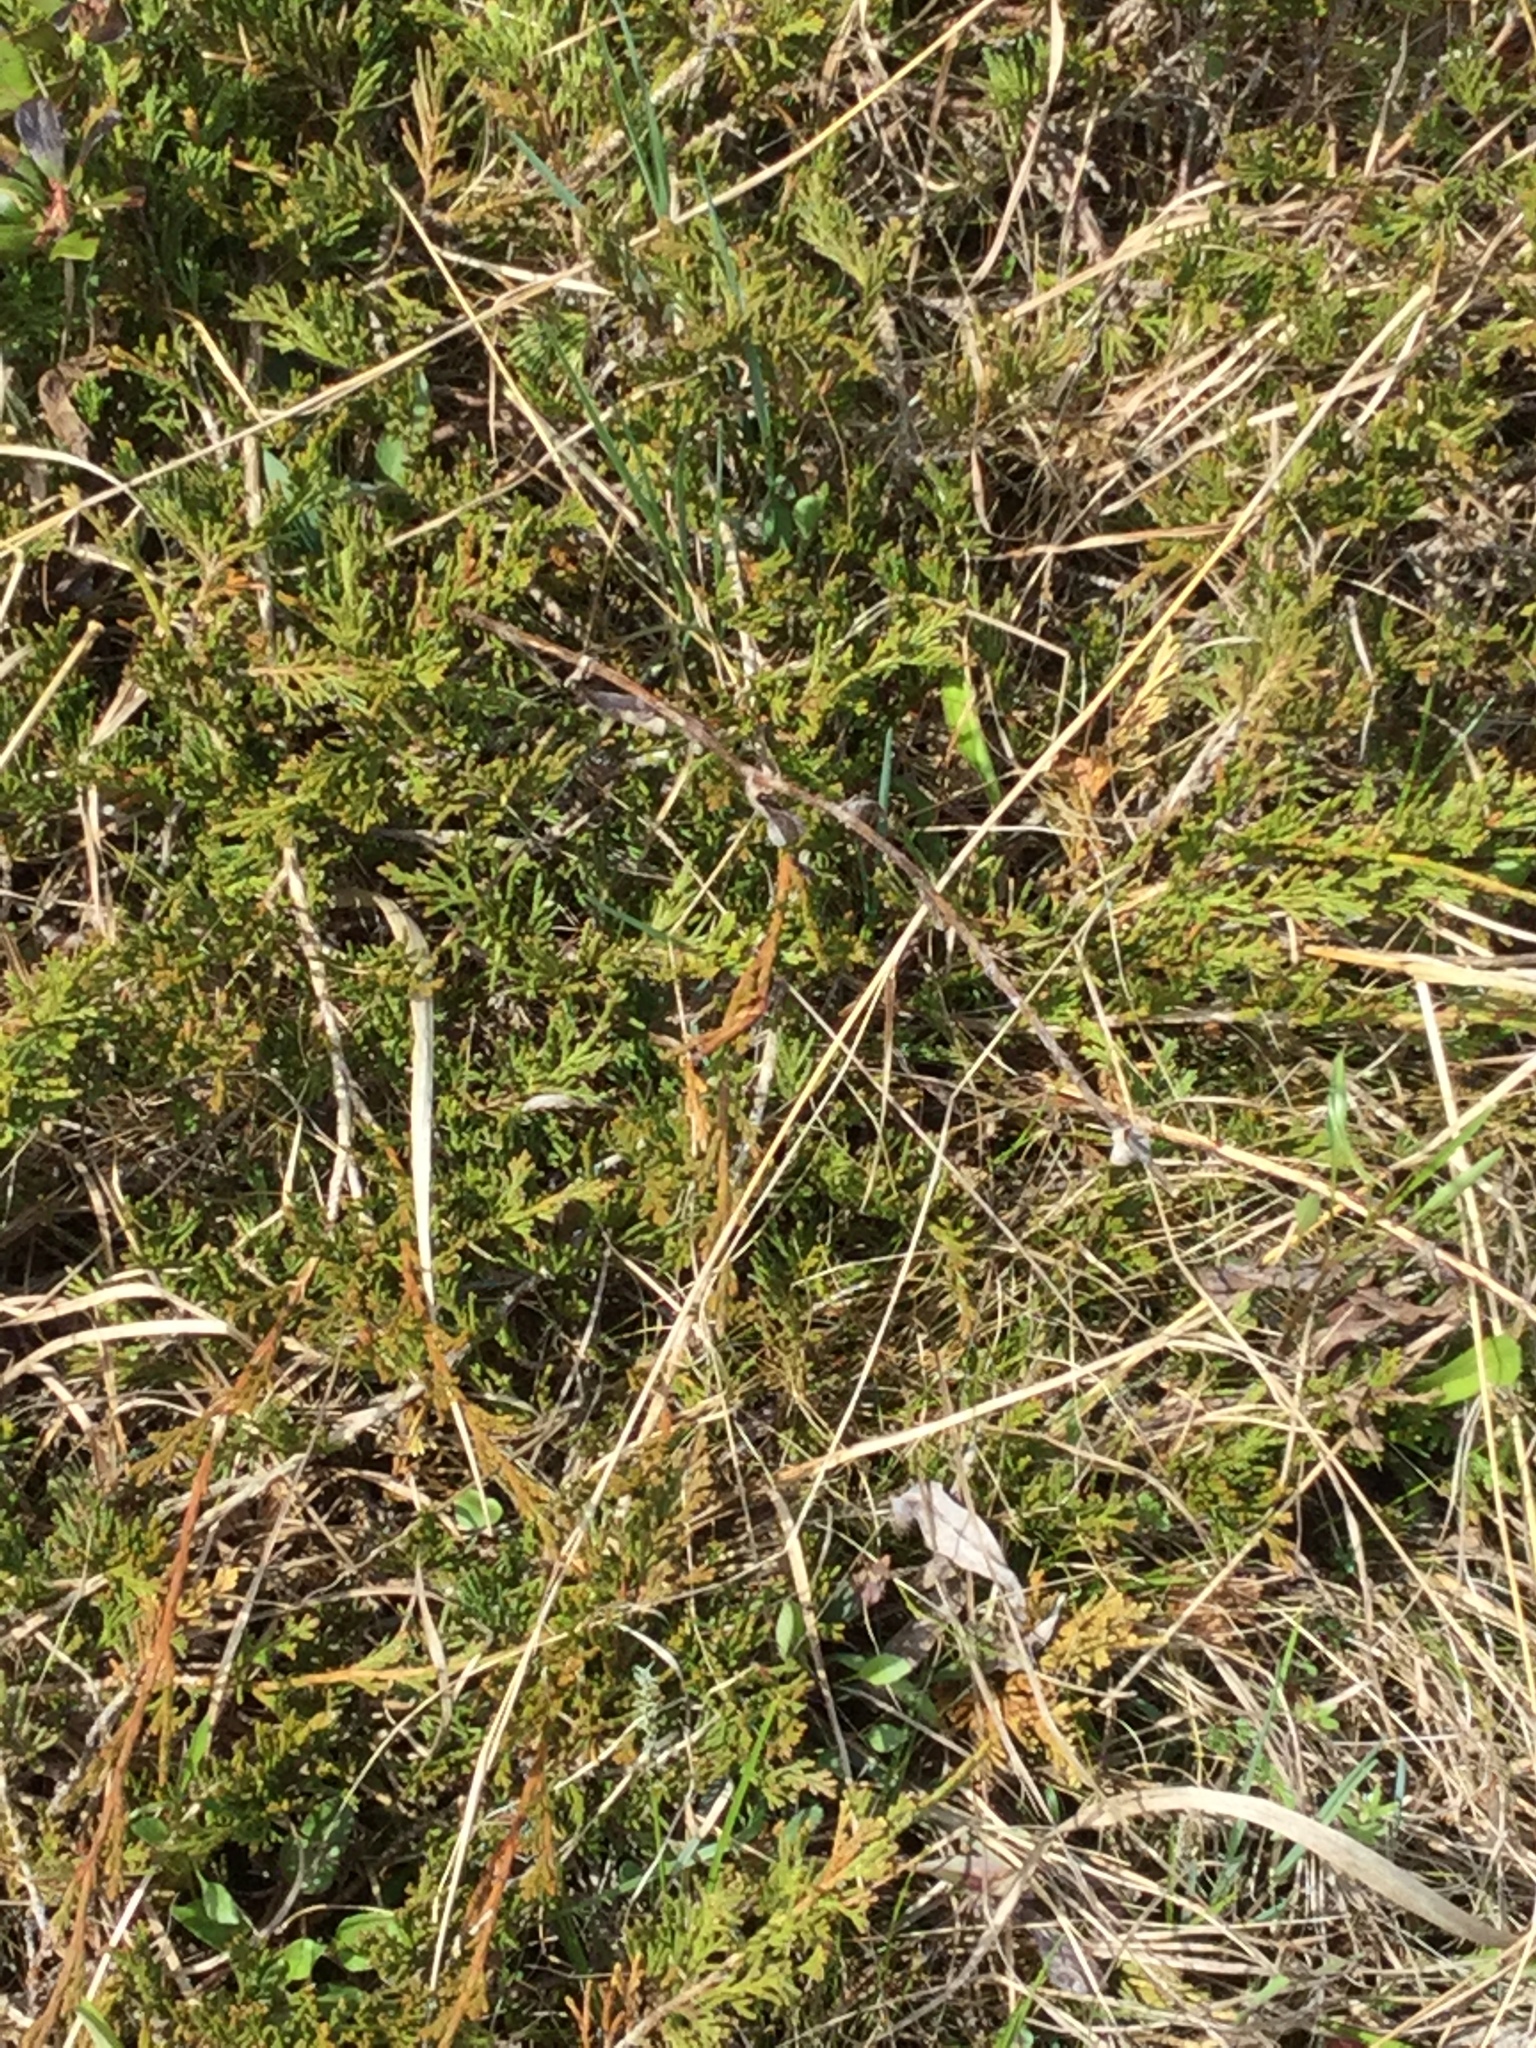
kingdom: Plantae
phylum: Tracheophyta
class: Pinopsida
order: Pinales
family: Cupressaceae
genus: Juniperus
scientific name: Juniperus horizontalis
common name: Creeping juniper
